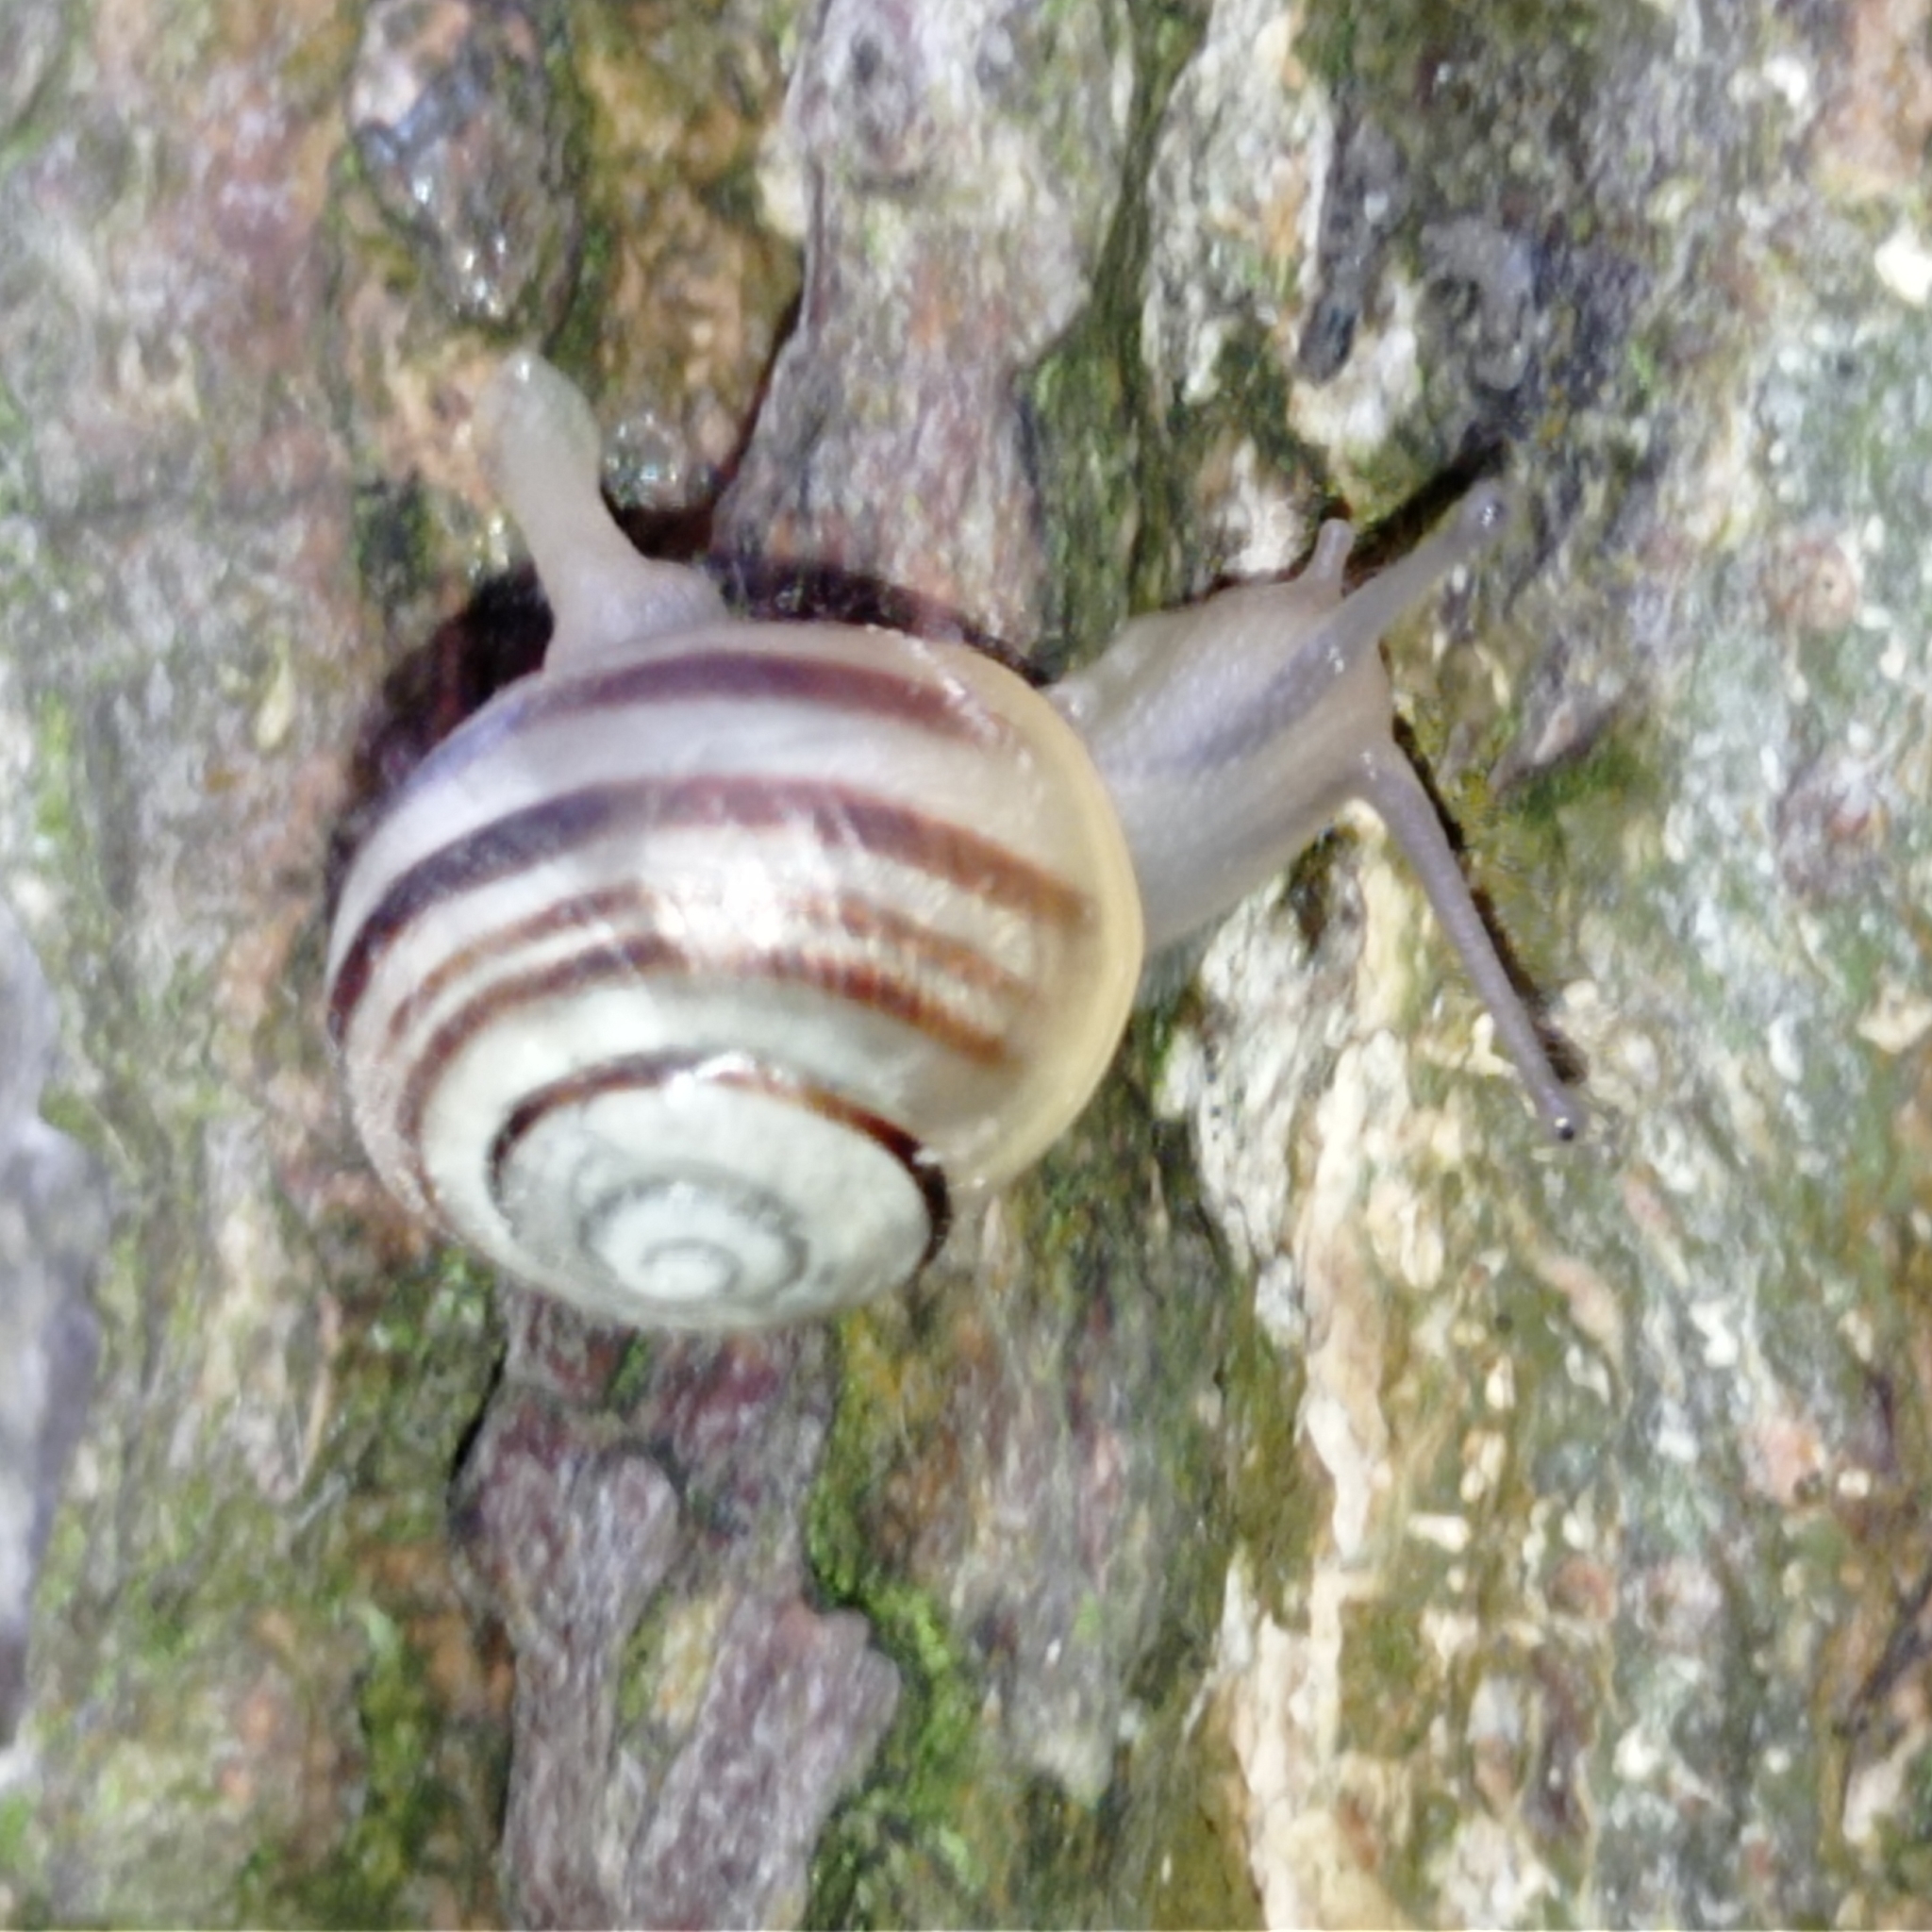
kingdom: Animalia
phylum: Mollusca
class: Gastropoda
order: Stylommatophora
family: Helicidae
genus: Cepaea
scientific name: Cepaea hortensis
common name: White-lip gardensnail
